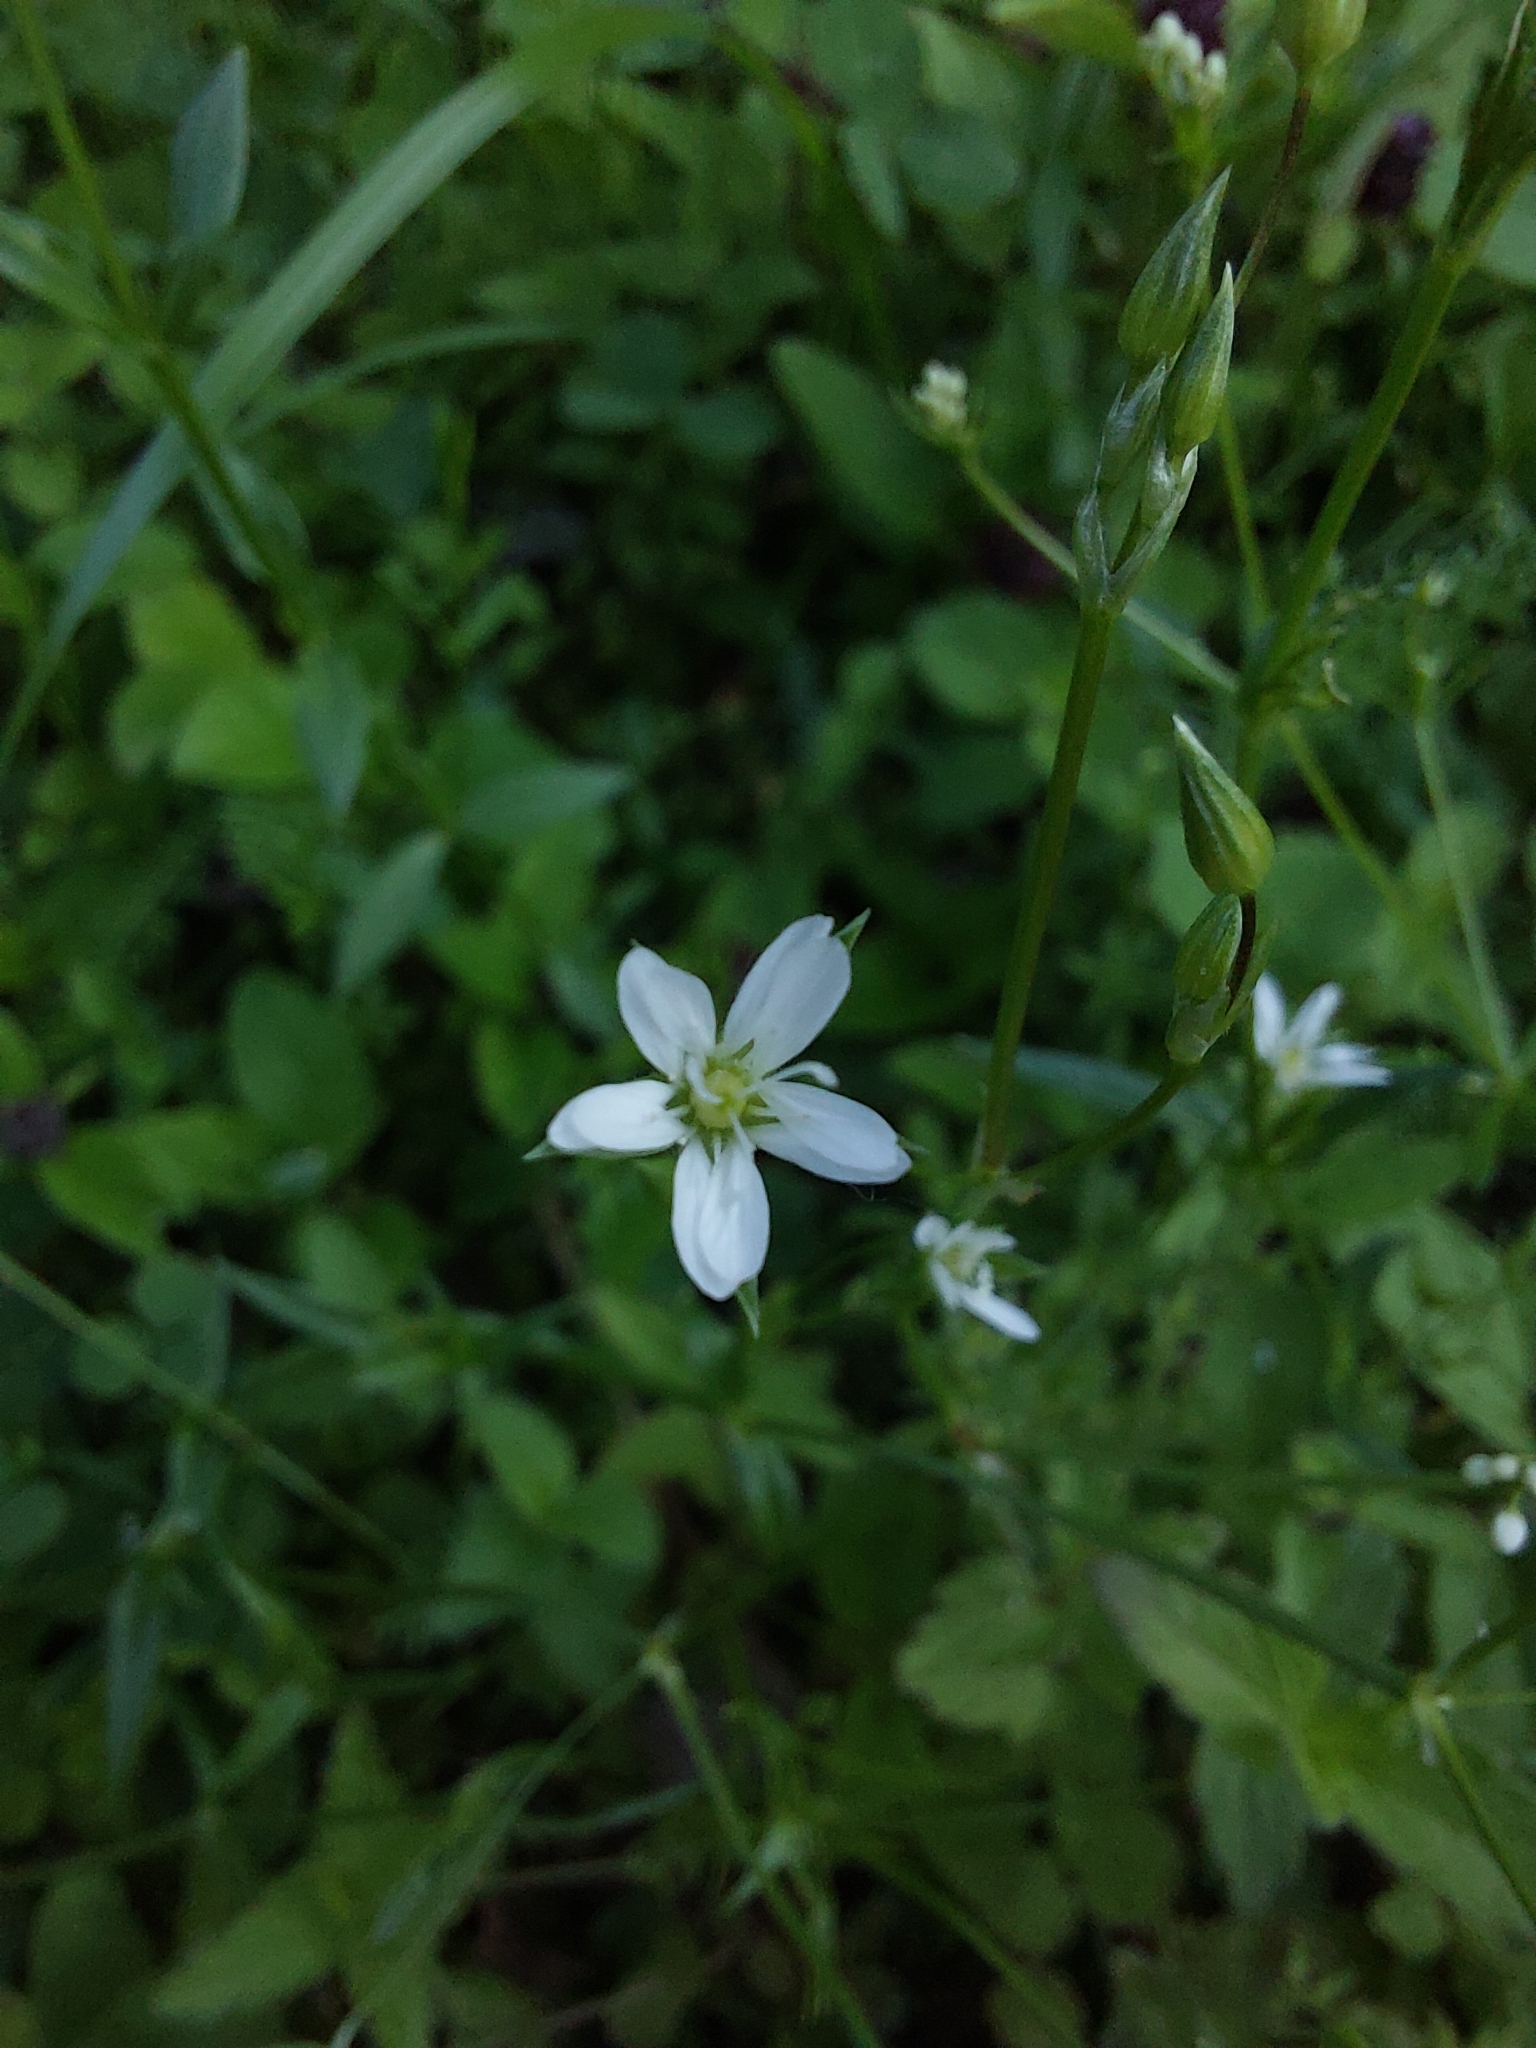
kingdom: Plantae
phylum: Tracheophyta
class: Magnoliopsida
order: Caryophyllales
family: Caryophyllaceae
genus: Stellaria
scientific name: Stellaria graminea
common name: Grass-like starwort
